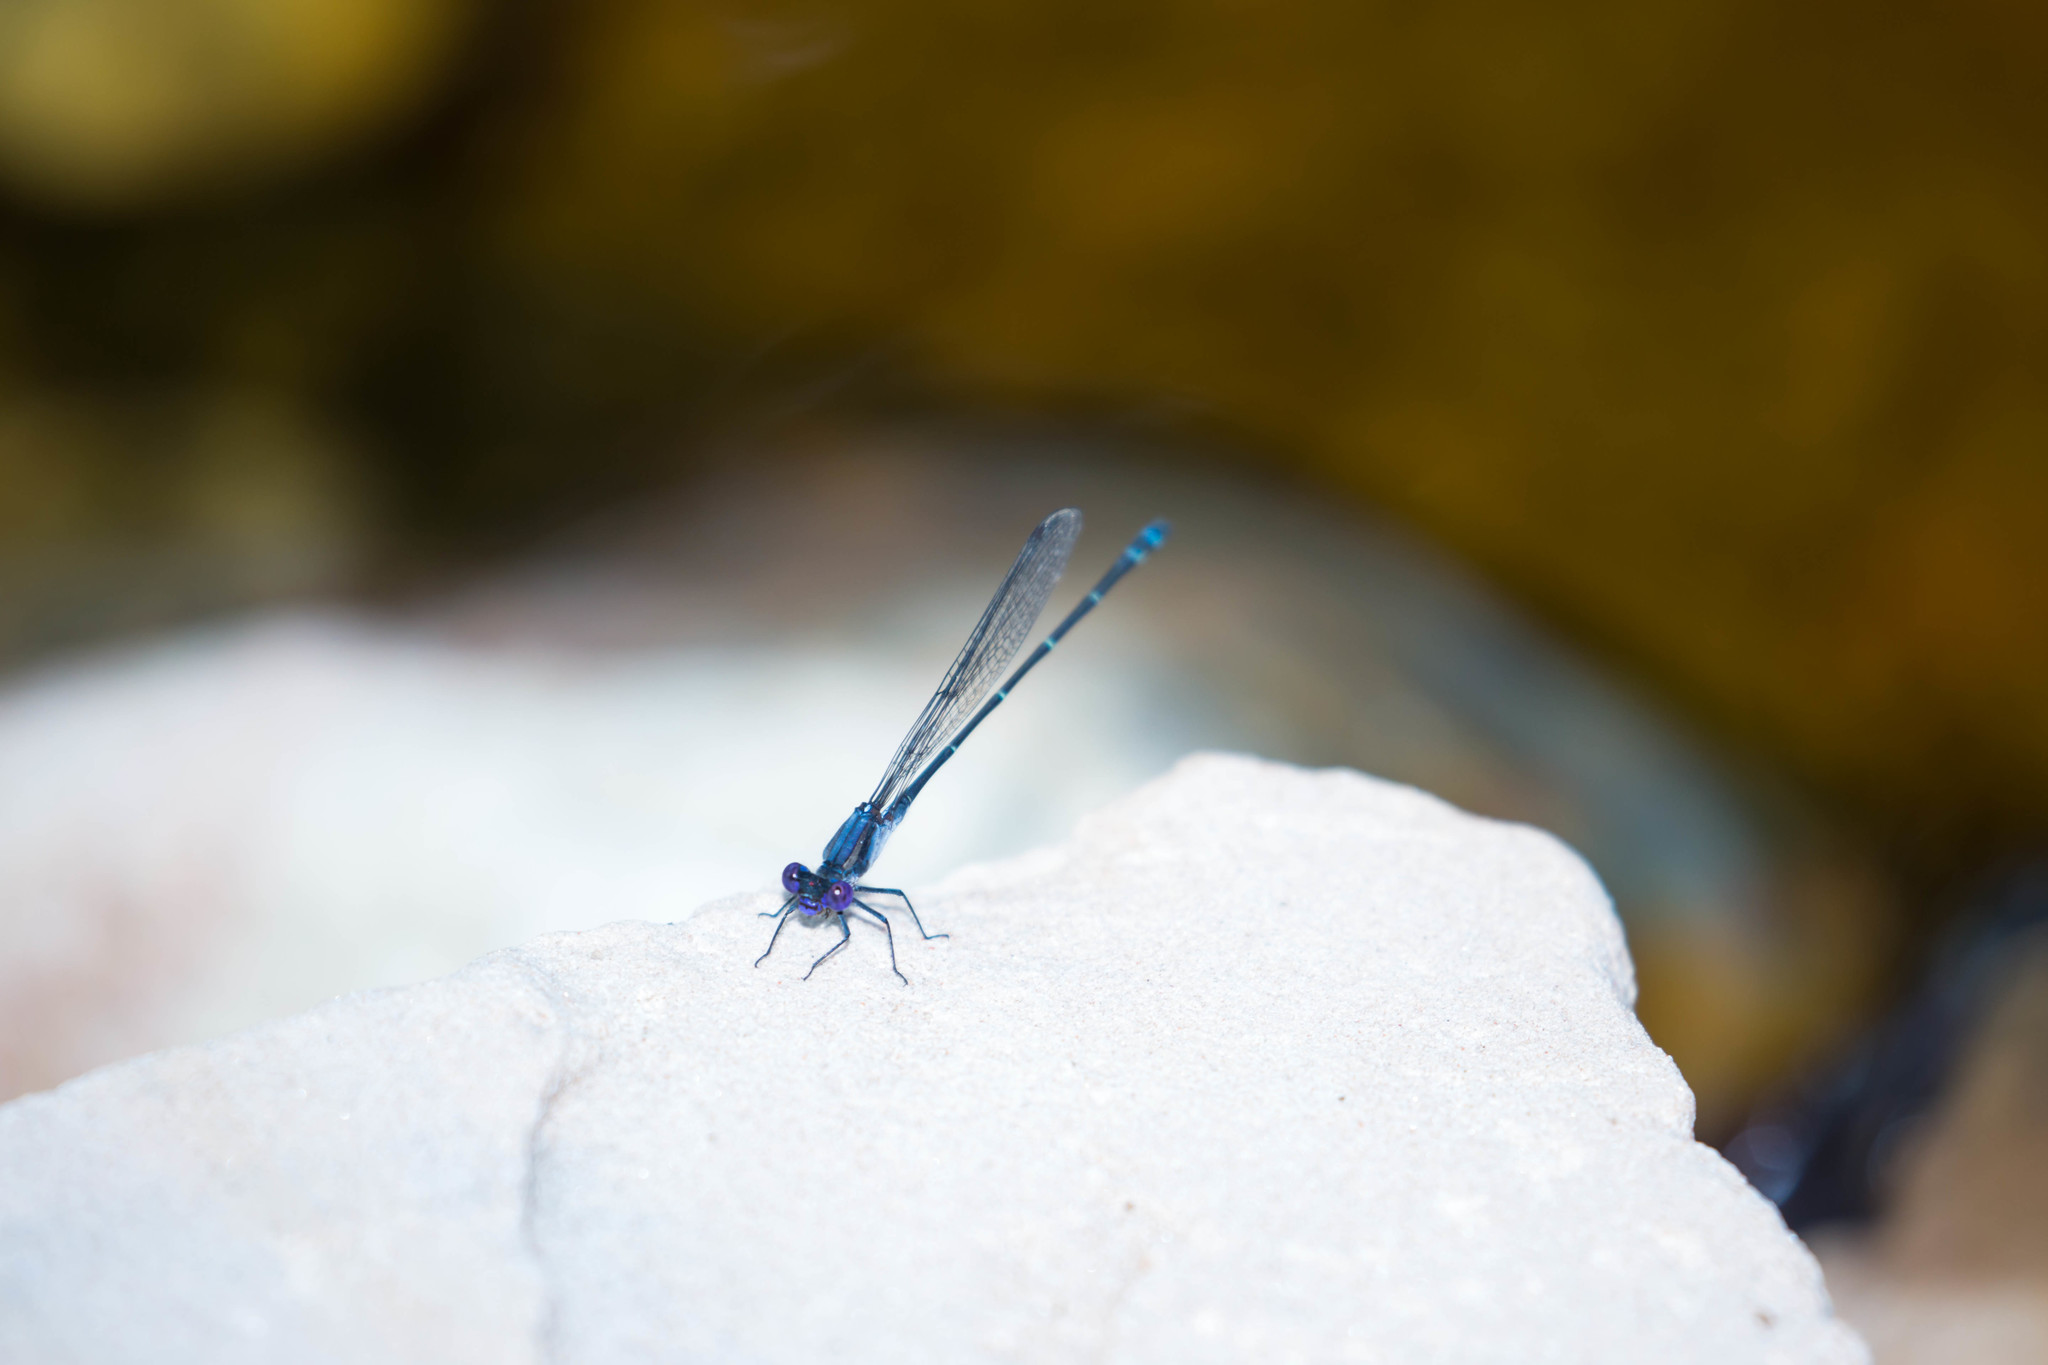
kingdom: Animalia
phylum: Arthropoda
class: Insecta
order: Odonata
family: Coenagrionidae
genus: Argia
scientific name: Argia translata
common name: Dusky dancer
